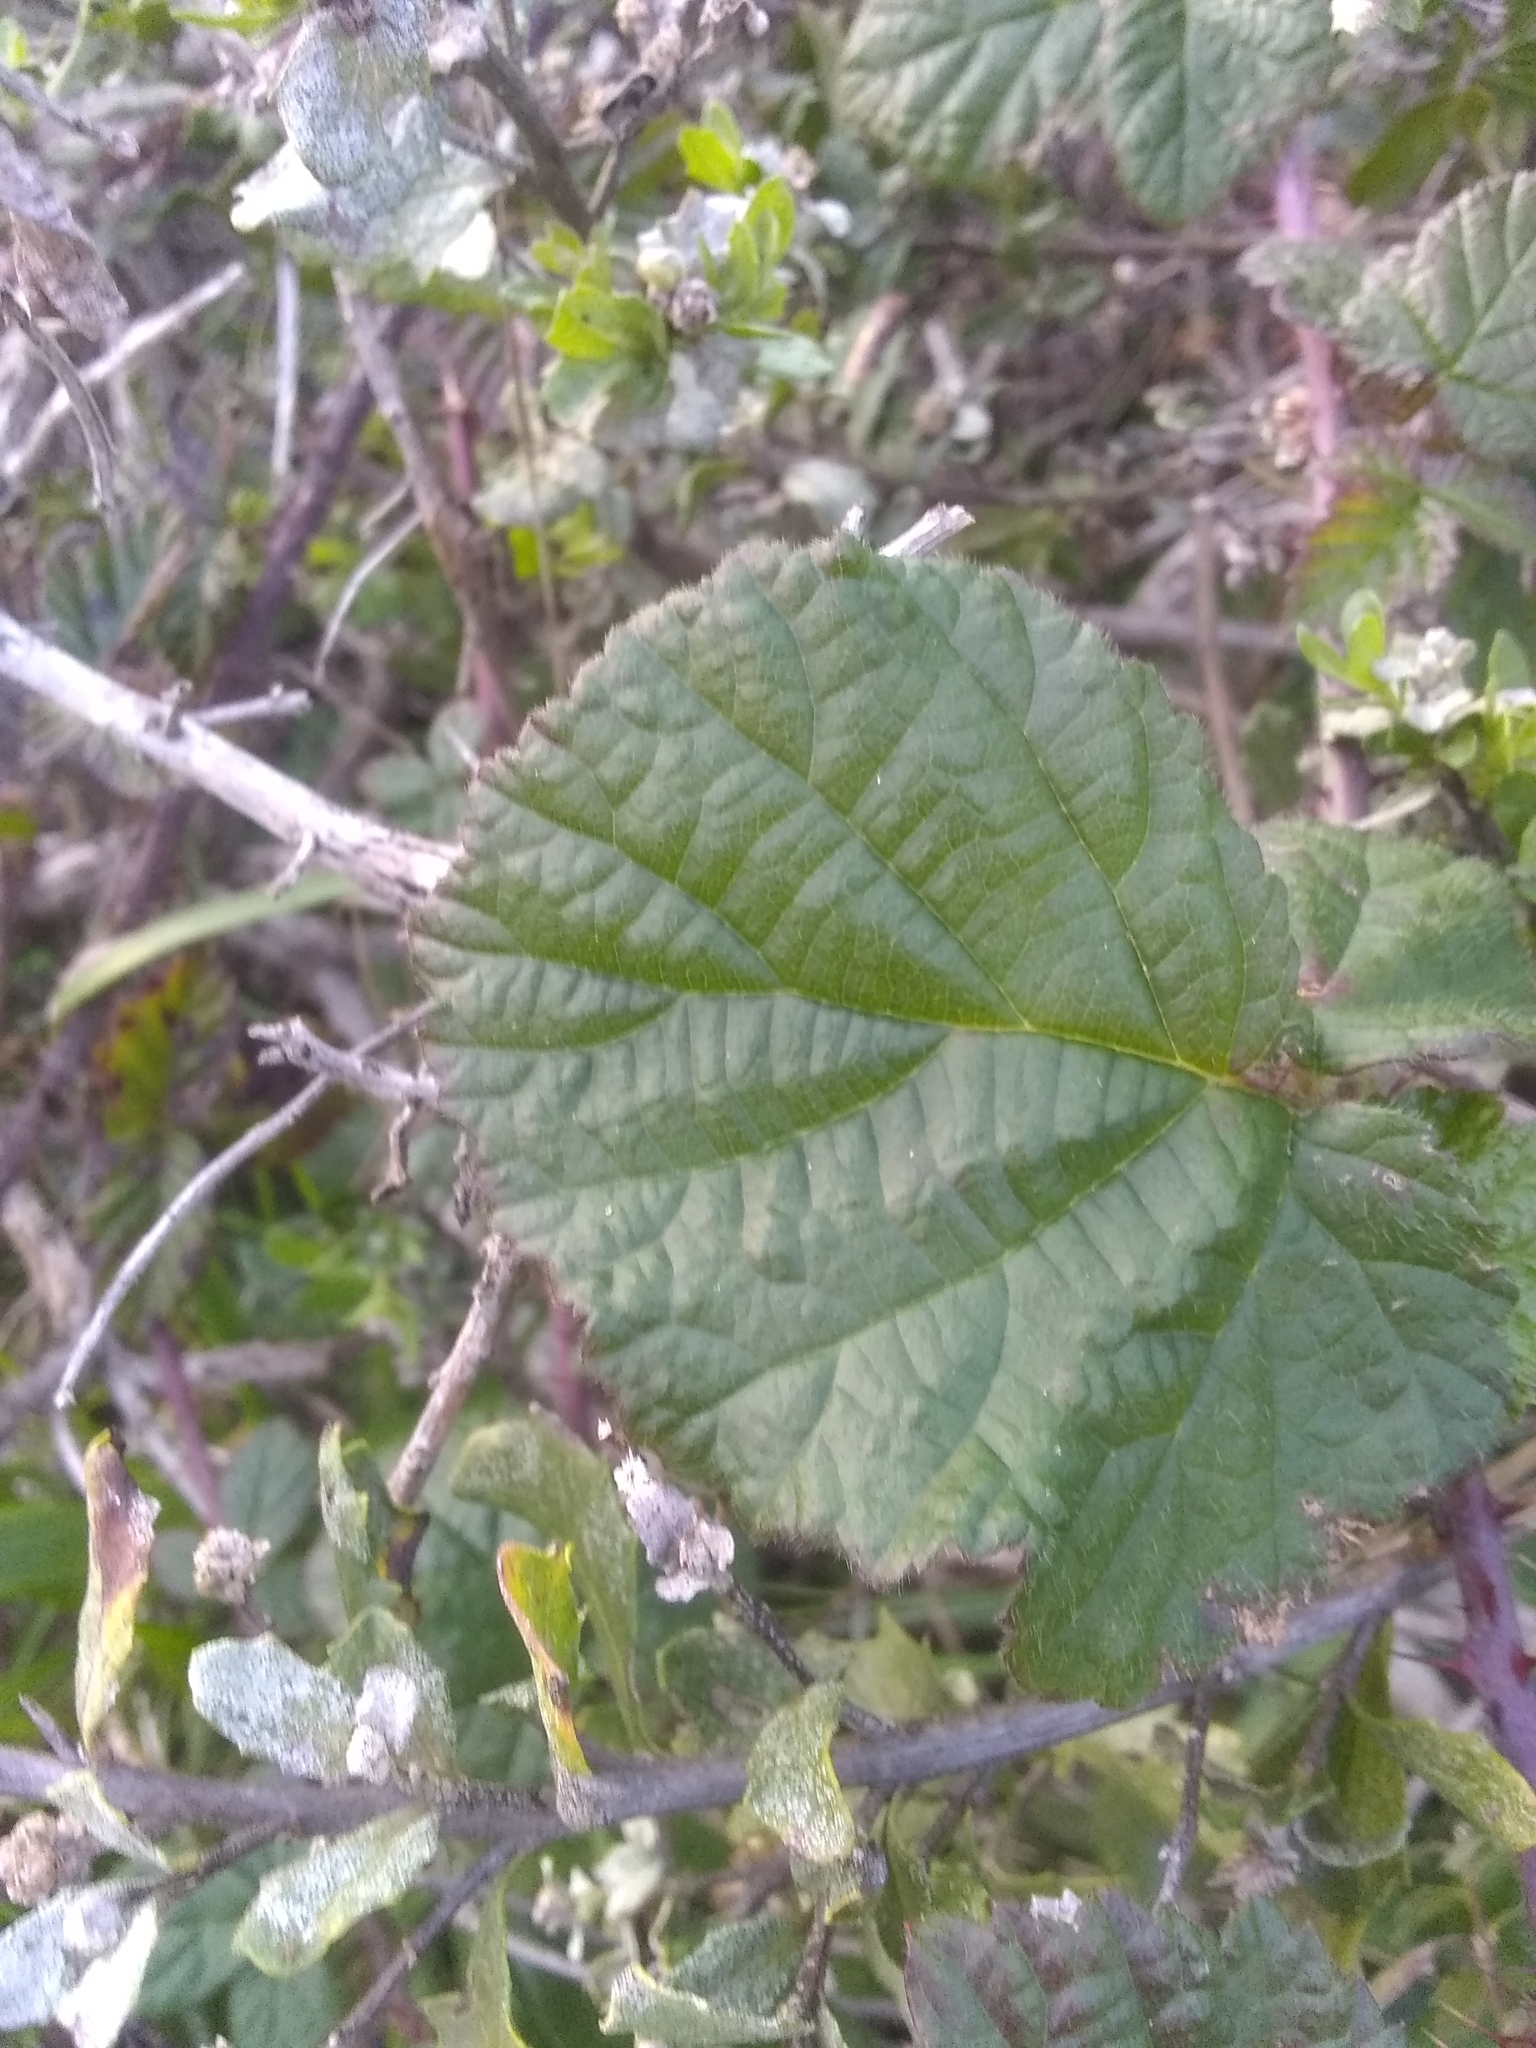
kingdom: Plantae
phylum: Tracheophyta
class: Magnoliopsida
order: Rosales
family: Rosaceae
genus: Rubus
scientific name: Rubus ursinus
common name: Pacific blackberry
